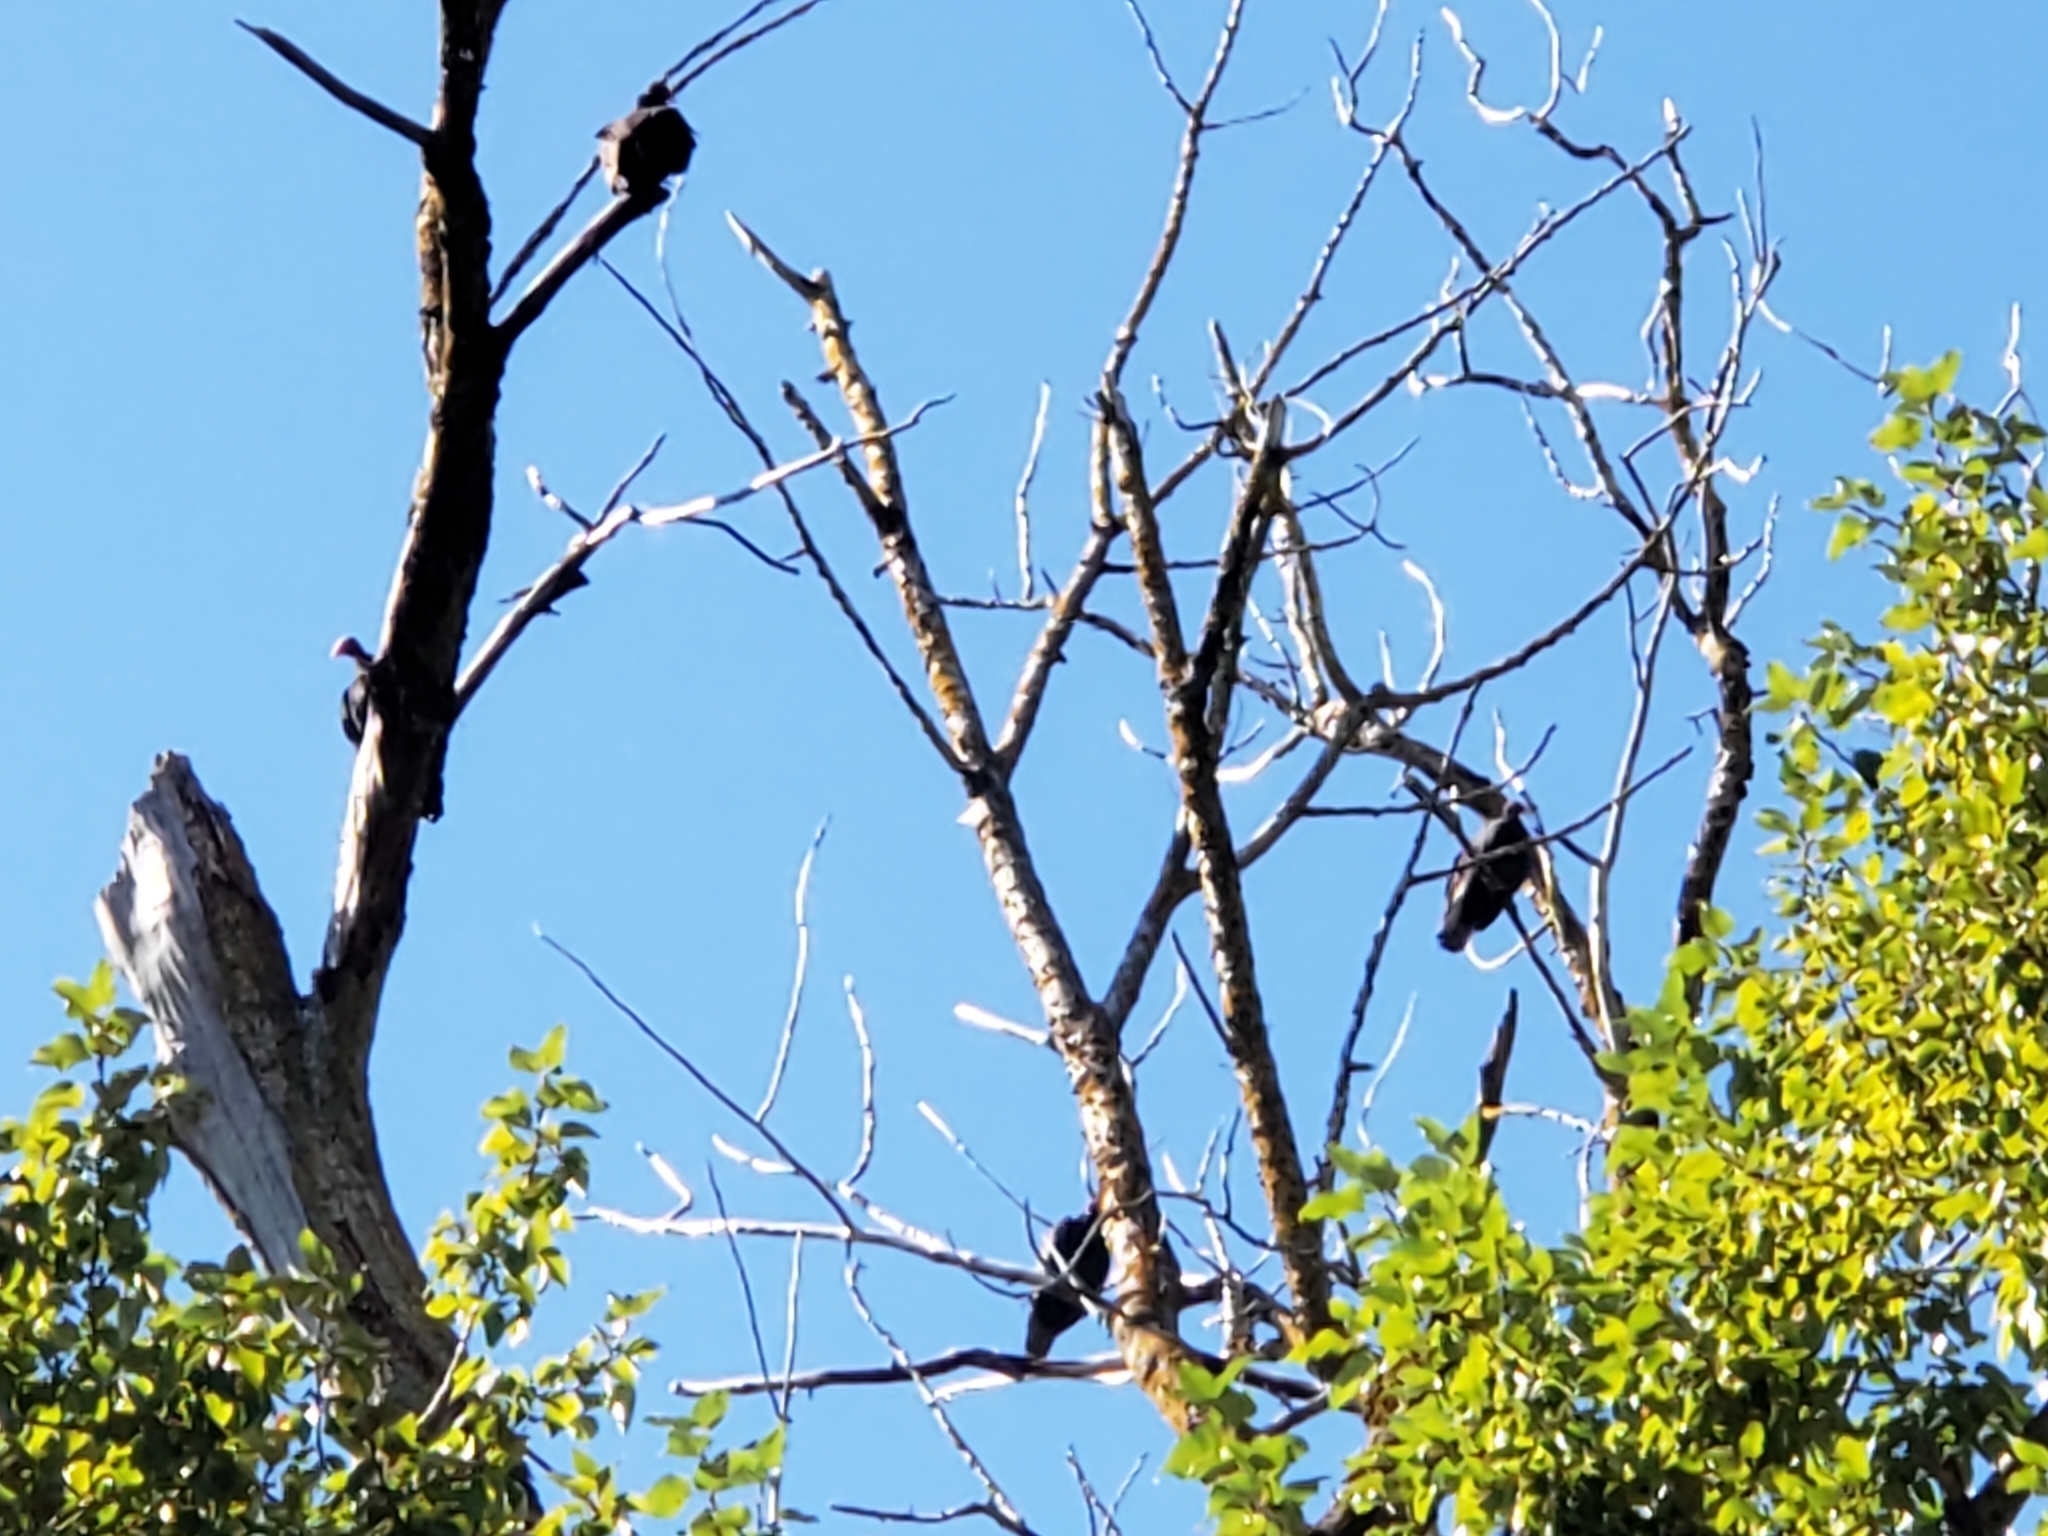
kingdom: Animalia
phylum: Chordata
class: Aves
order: Accipitriformes
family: Cathartidae
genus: Cathartes
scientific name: Cathartes aura
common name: Turkey vulture
